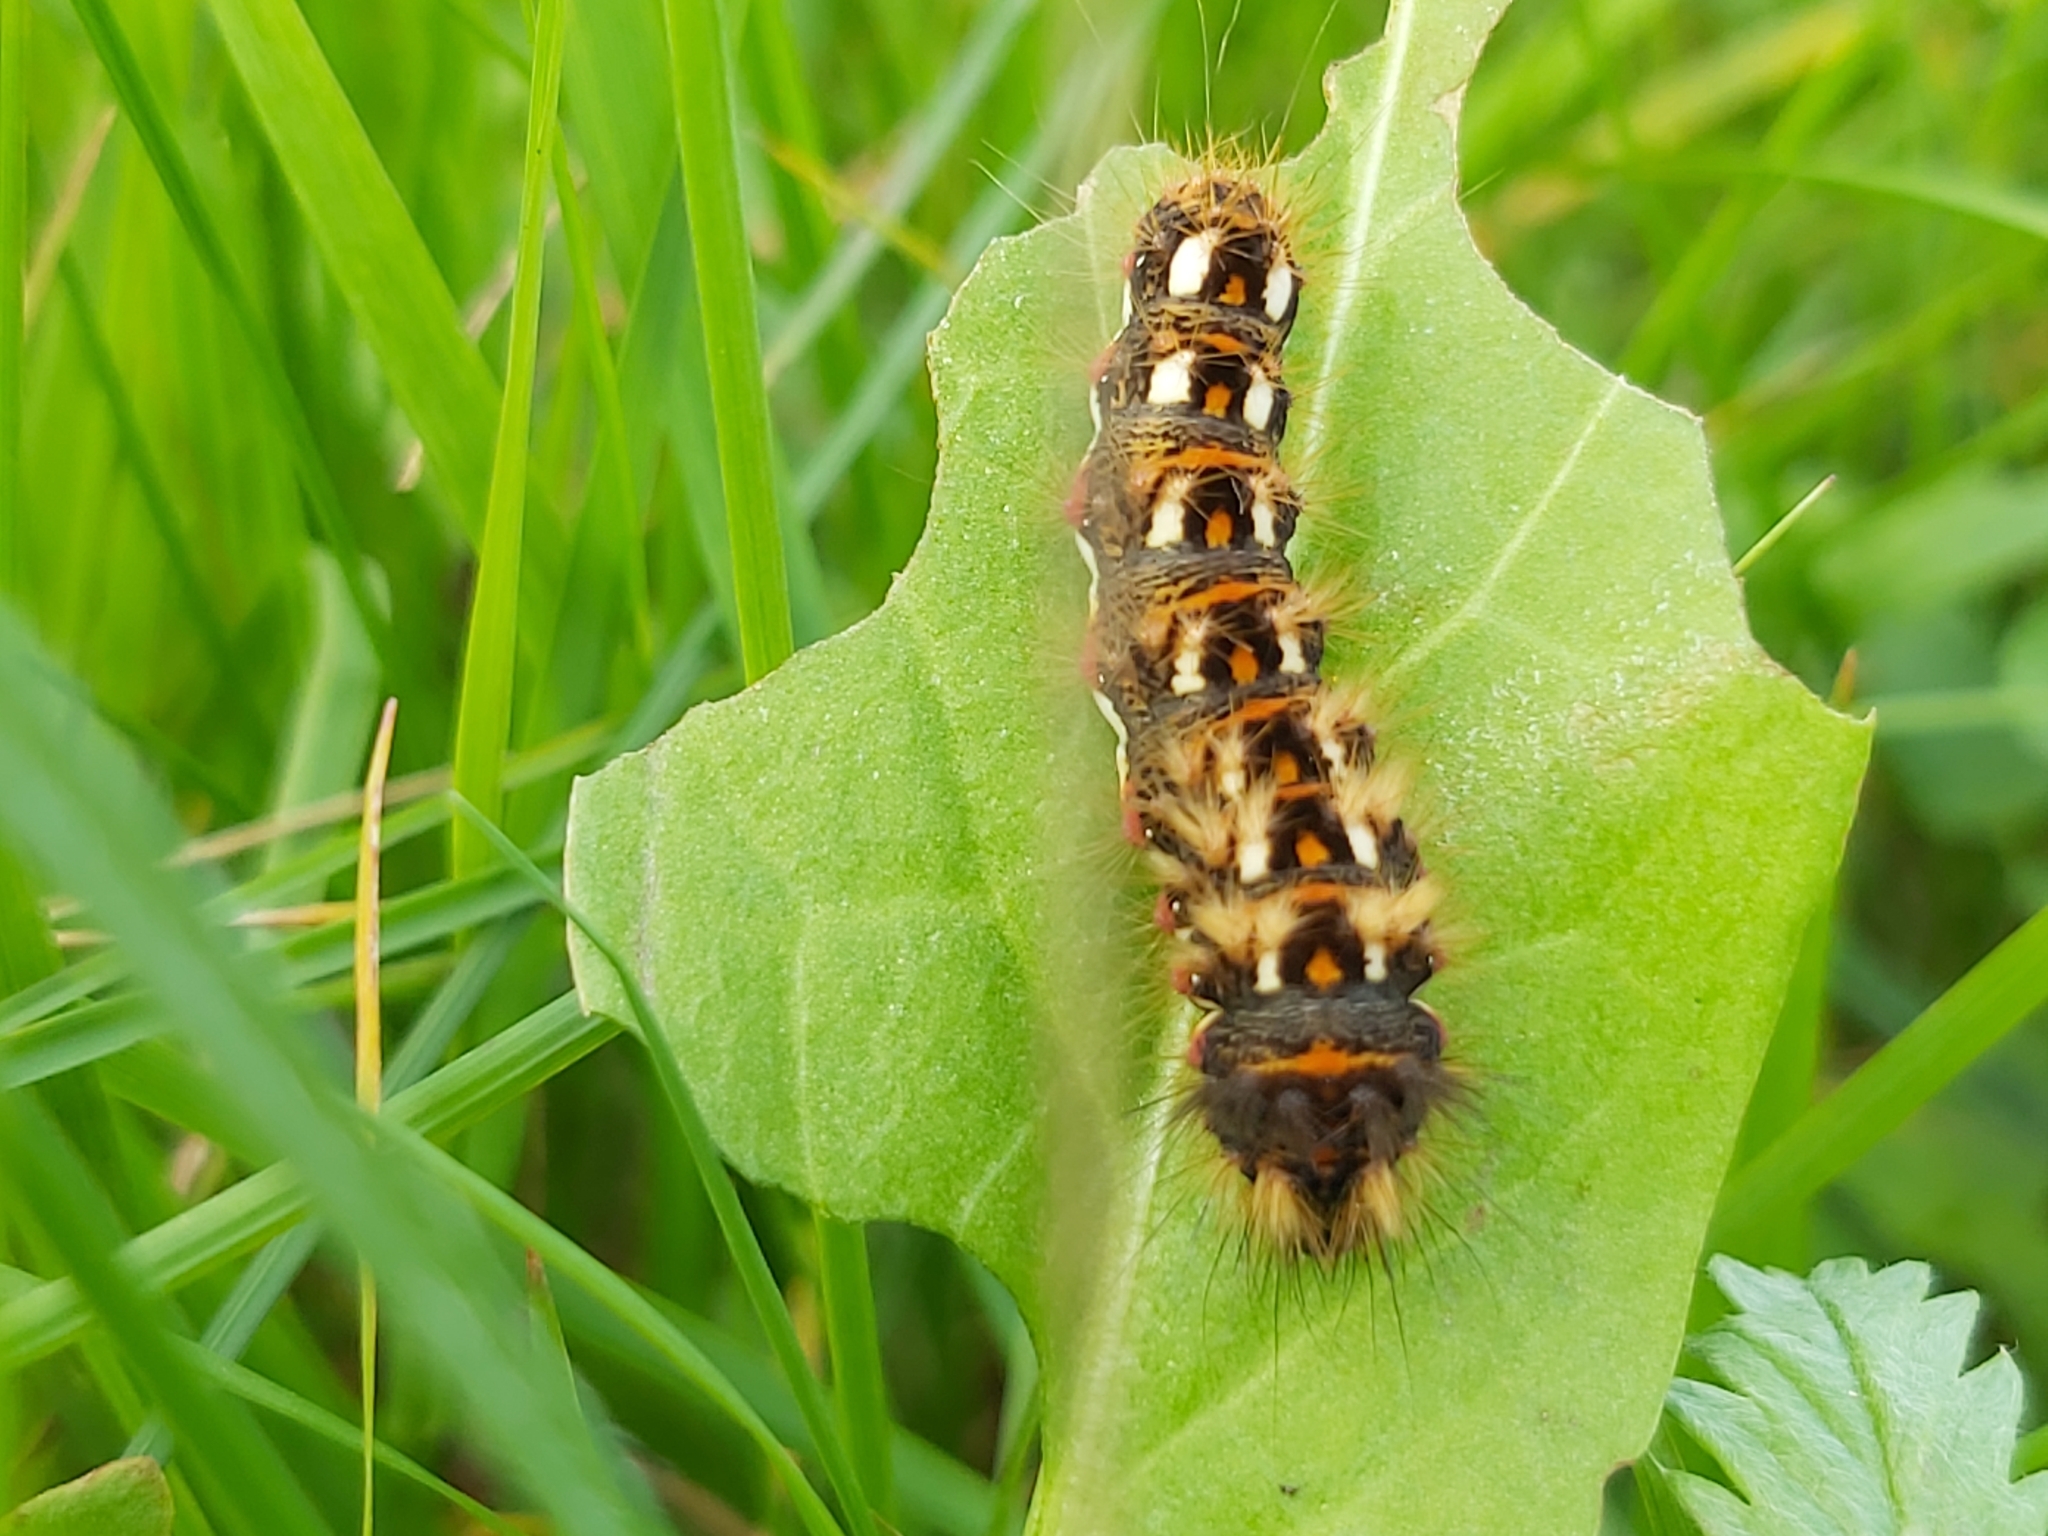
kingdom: Animalia
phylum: Arthropoda
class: Insecta
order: Lepidoptera
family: Noctuidae
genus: Acronicta
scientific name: Acronicta rumicis
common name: Knot grass
